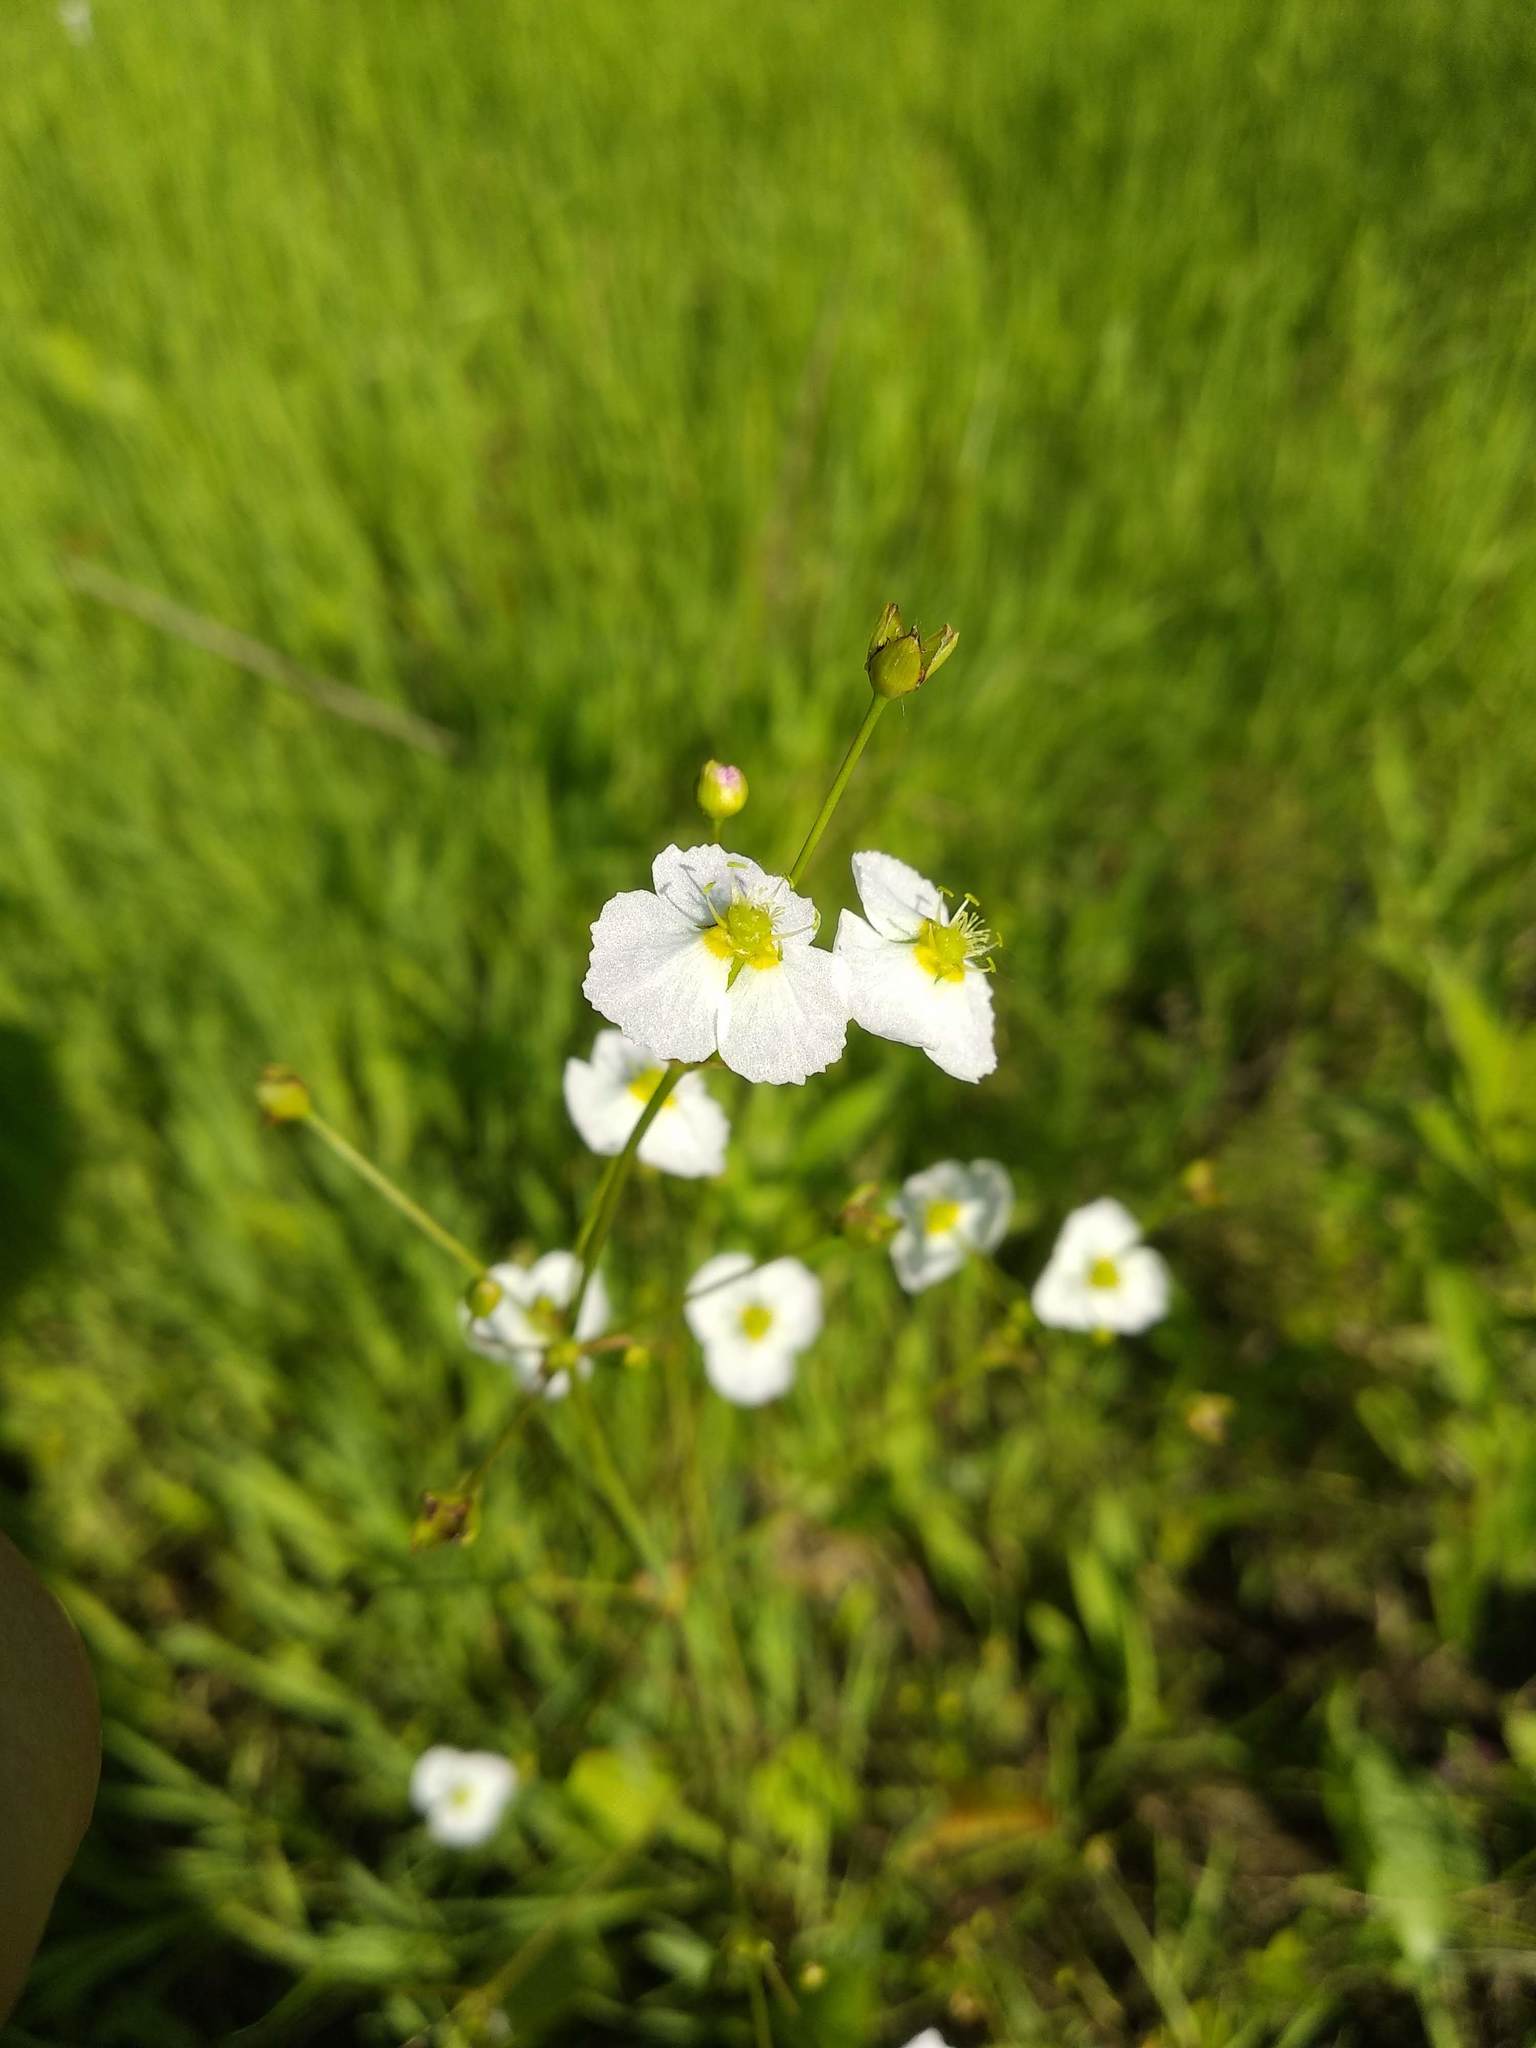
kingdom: Plantae
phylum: Tracheophyta
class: Liliopsida
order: Alismatales
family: Alismataceae
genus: Alisma
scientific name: Alisma plantago-aquatica
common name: Water-plantain
